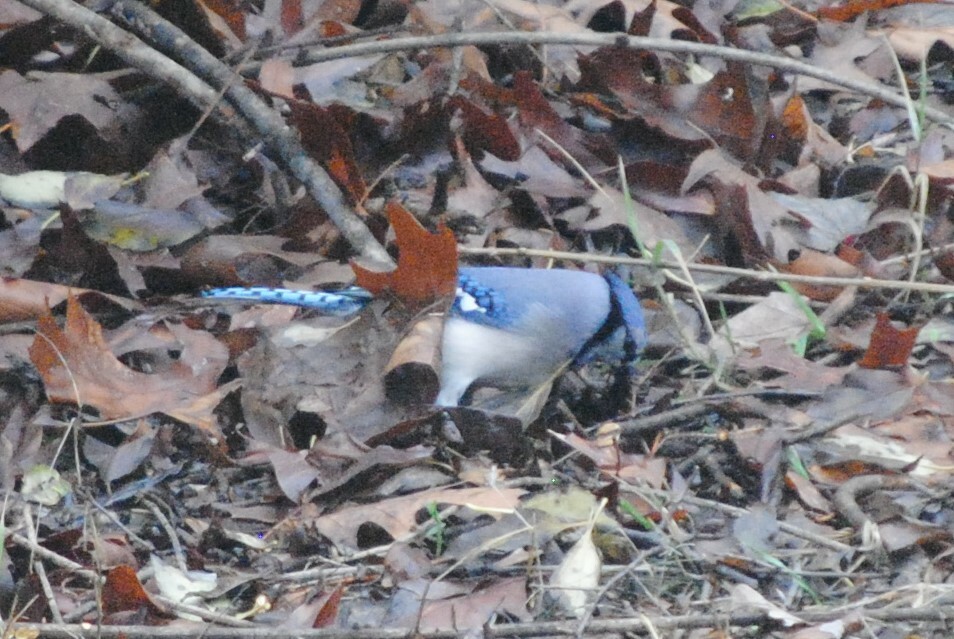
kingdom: Animalia
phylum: Chordata
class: Aves
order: Passeriformes
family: Corvidae
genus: Cyanocitta
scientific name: Cyanocitta cristata
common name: Blue jay
